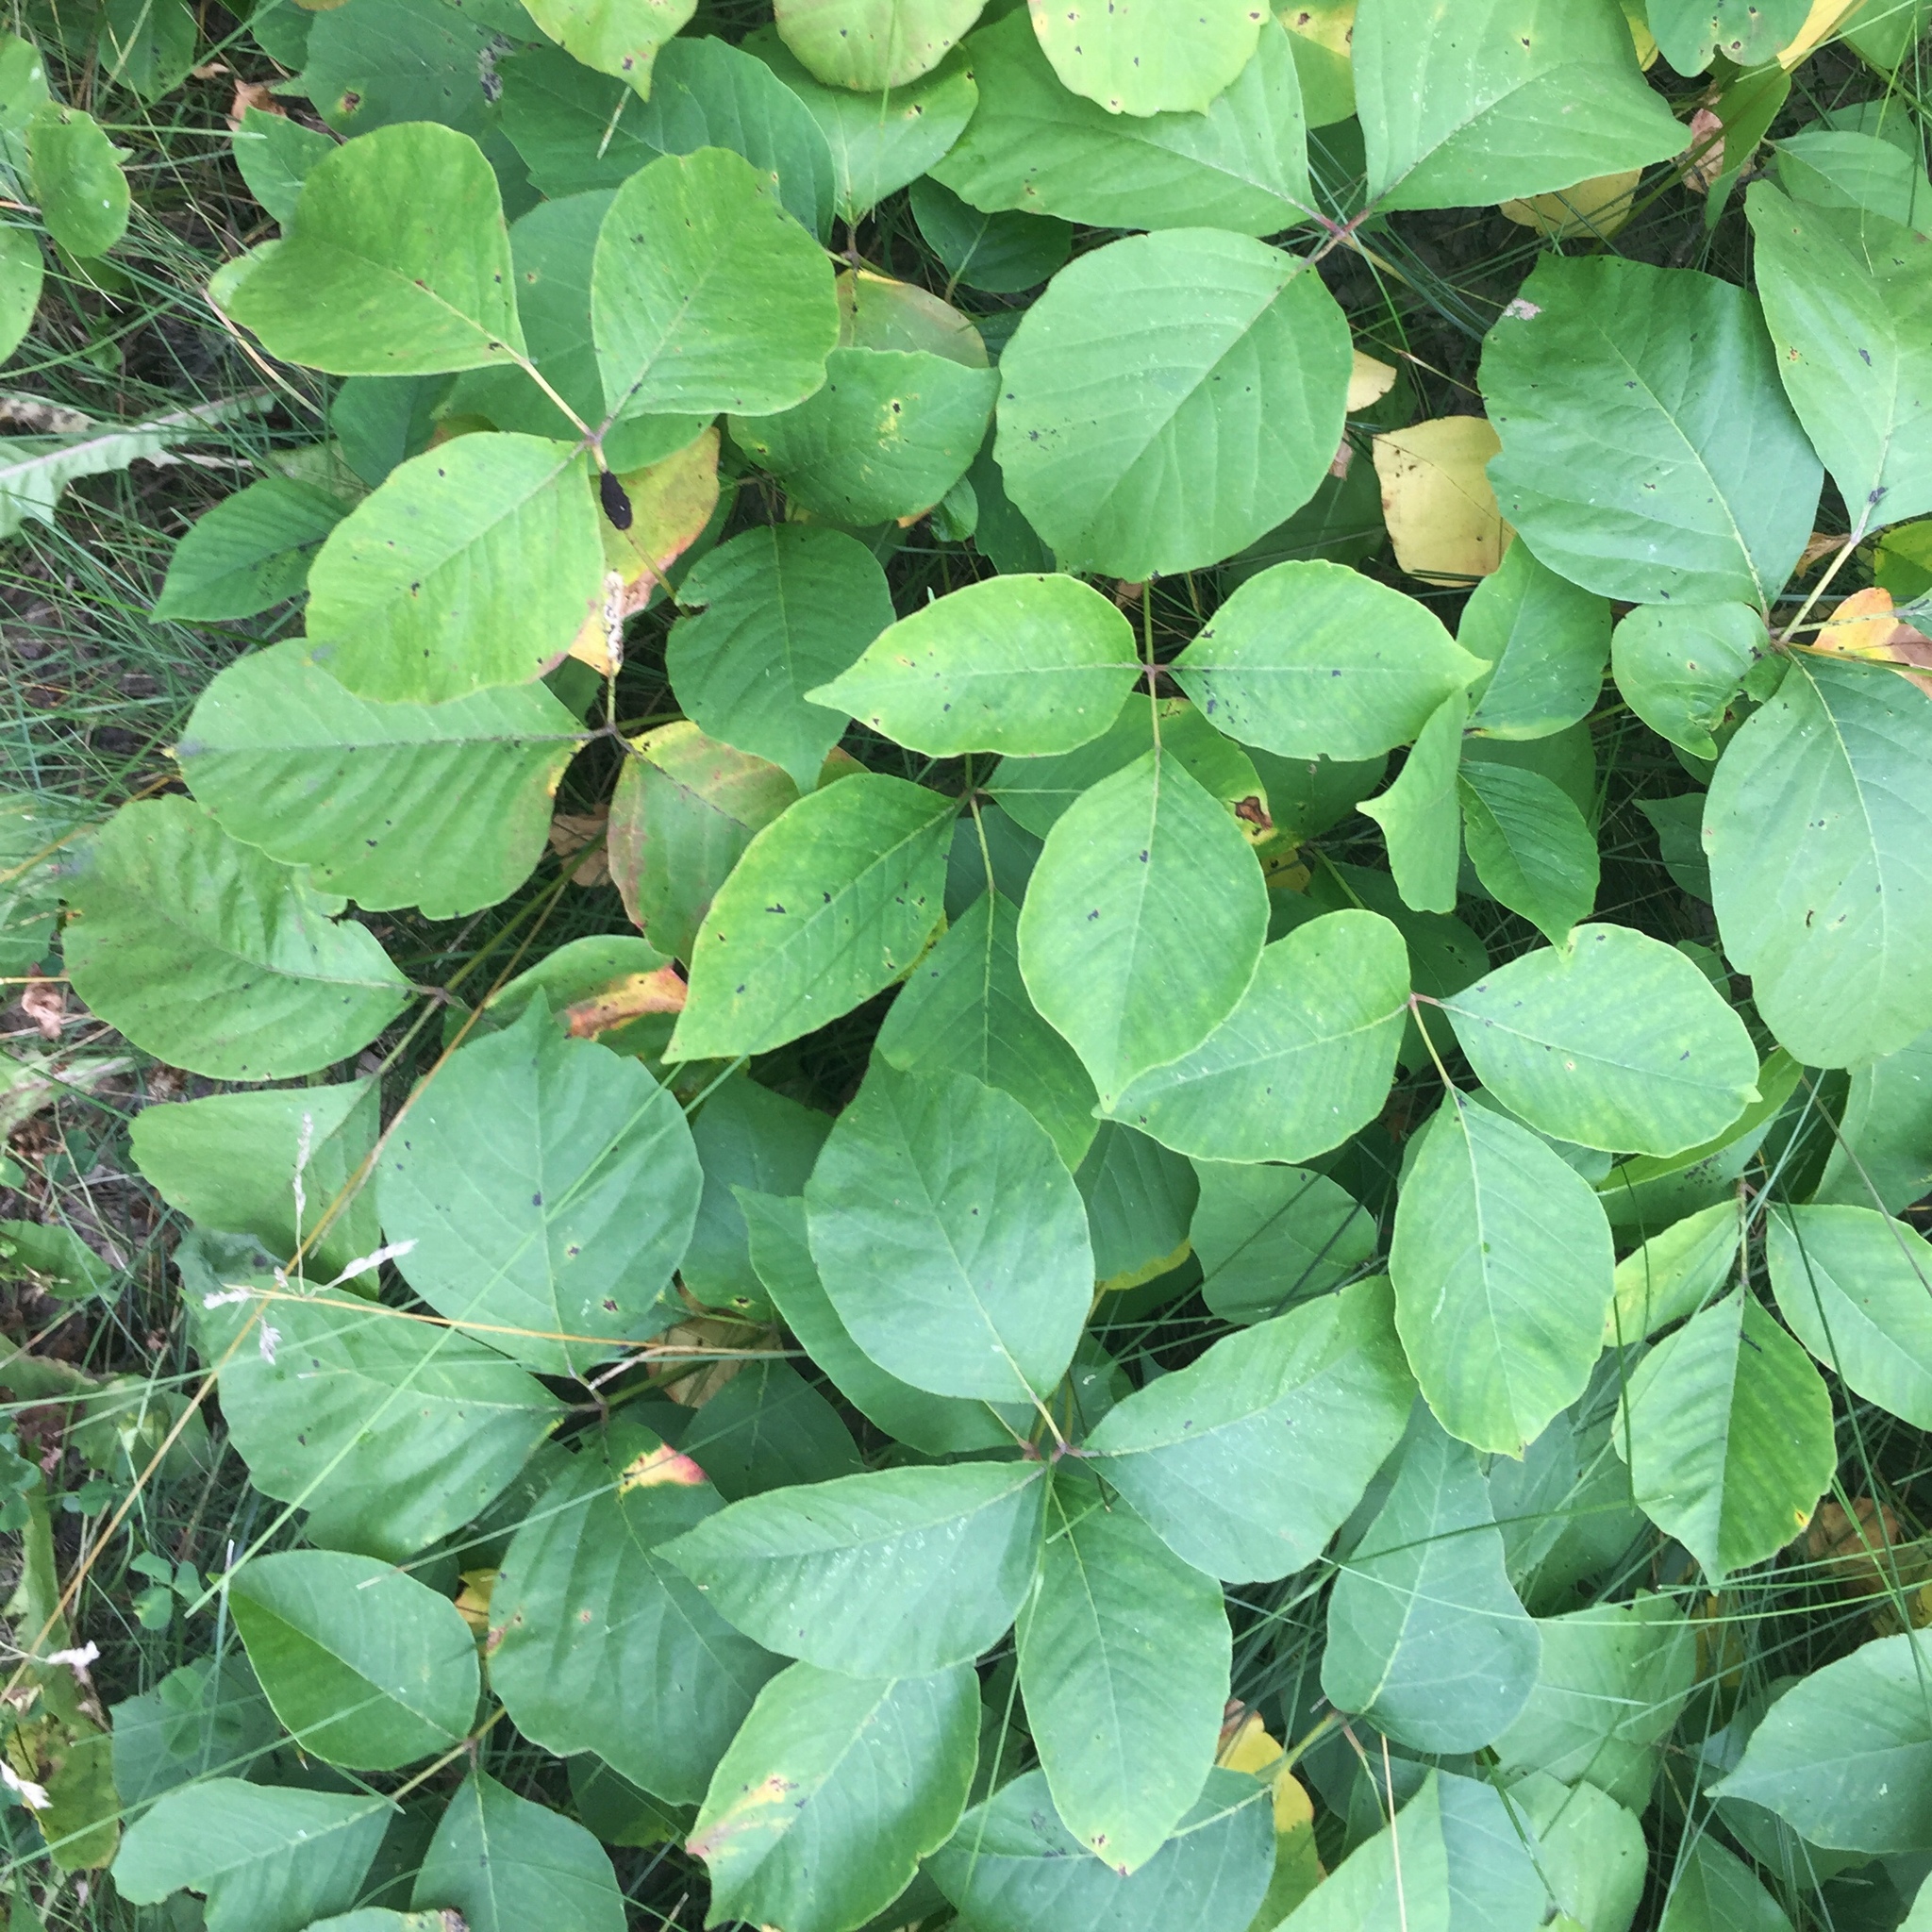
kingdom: Plantae
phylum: Tracheophyta
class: Magnoliopsida
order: Sapindales
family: Anacardiaceae
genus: Toxicodendron
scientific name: Toxicodendron rydbergii
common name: Rydberg's poison-ivy
